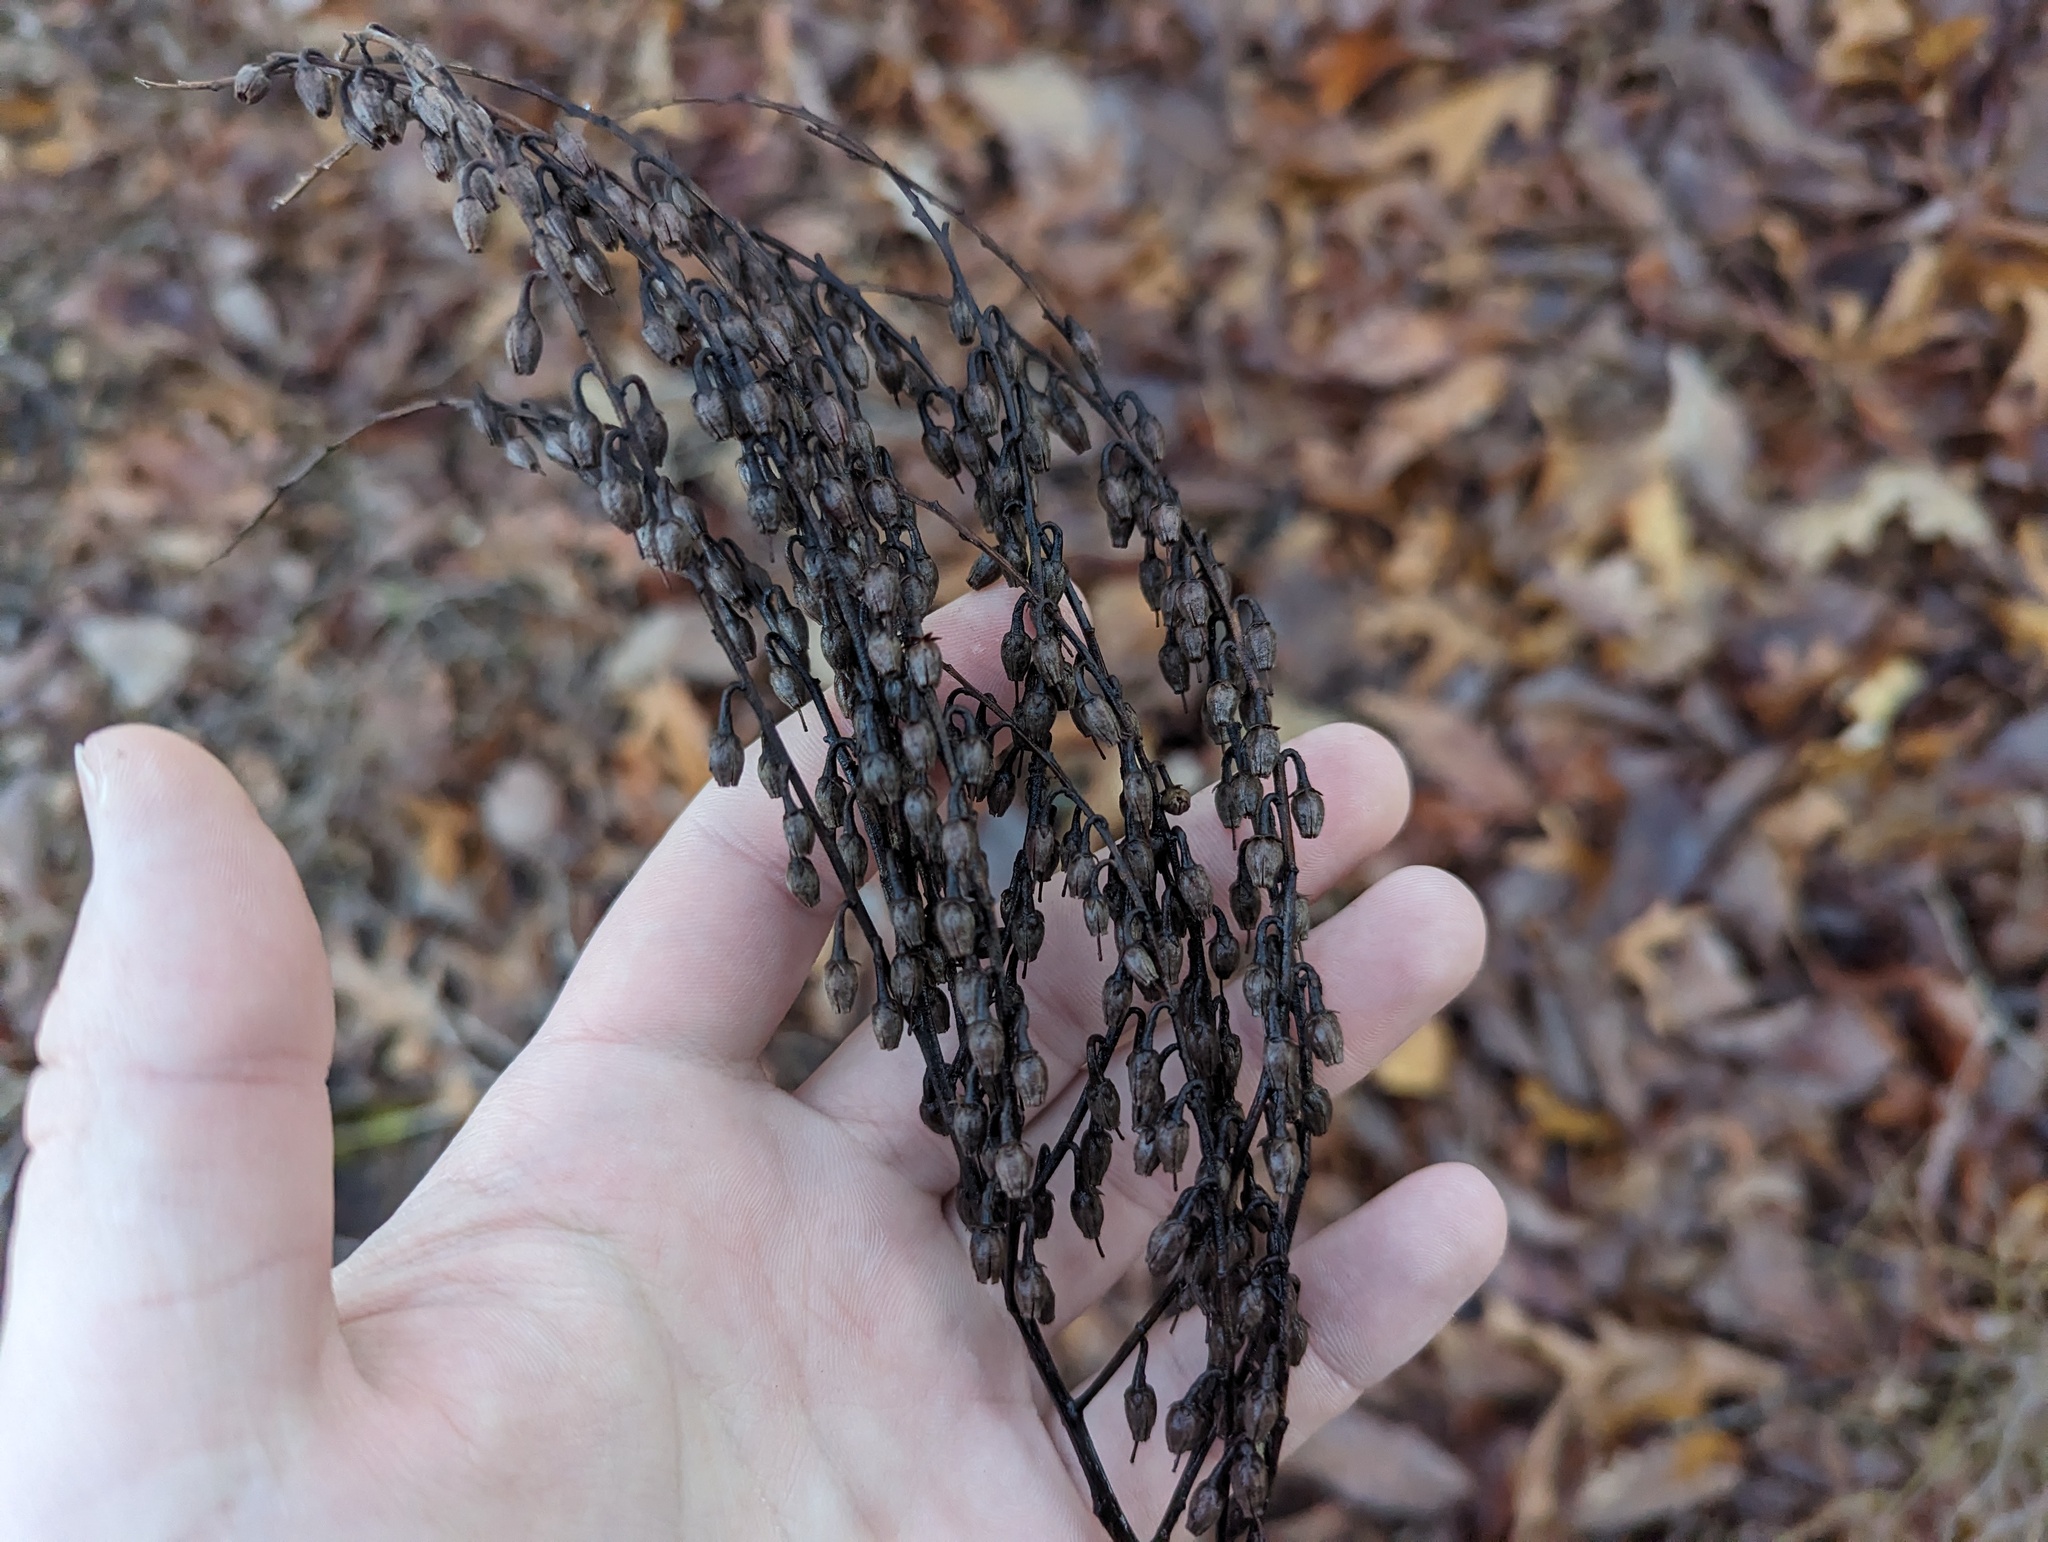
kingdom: Plantae
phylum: Tracheophyta
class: Magnoliopsida
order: Ericales
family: Ericaceae
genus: Oxydendrum
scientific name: Oxydendrum arboreum
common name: Sourwood
